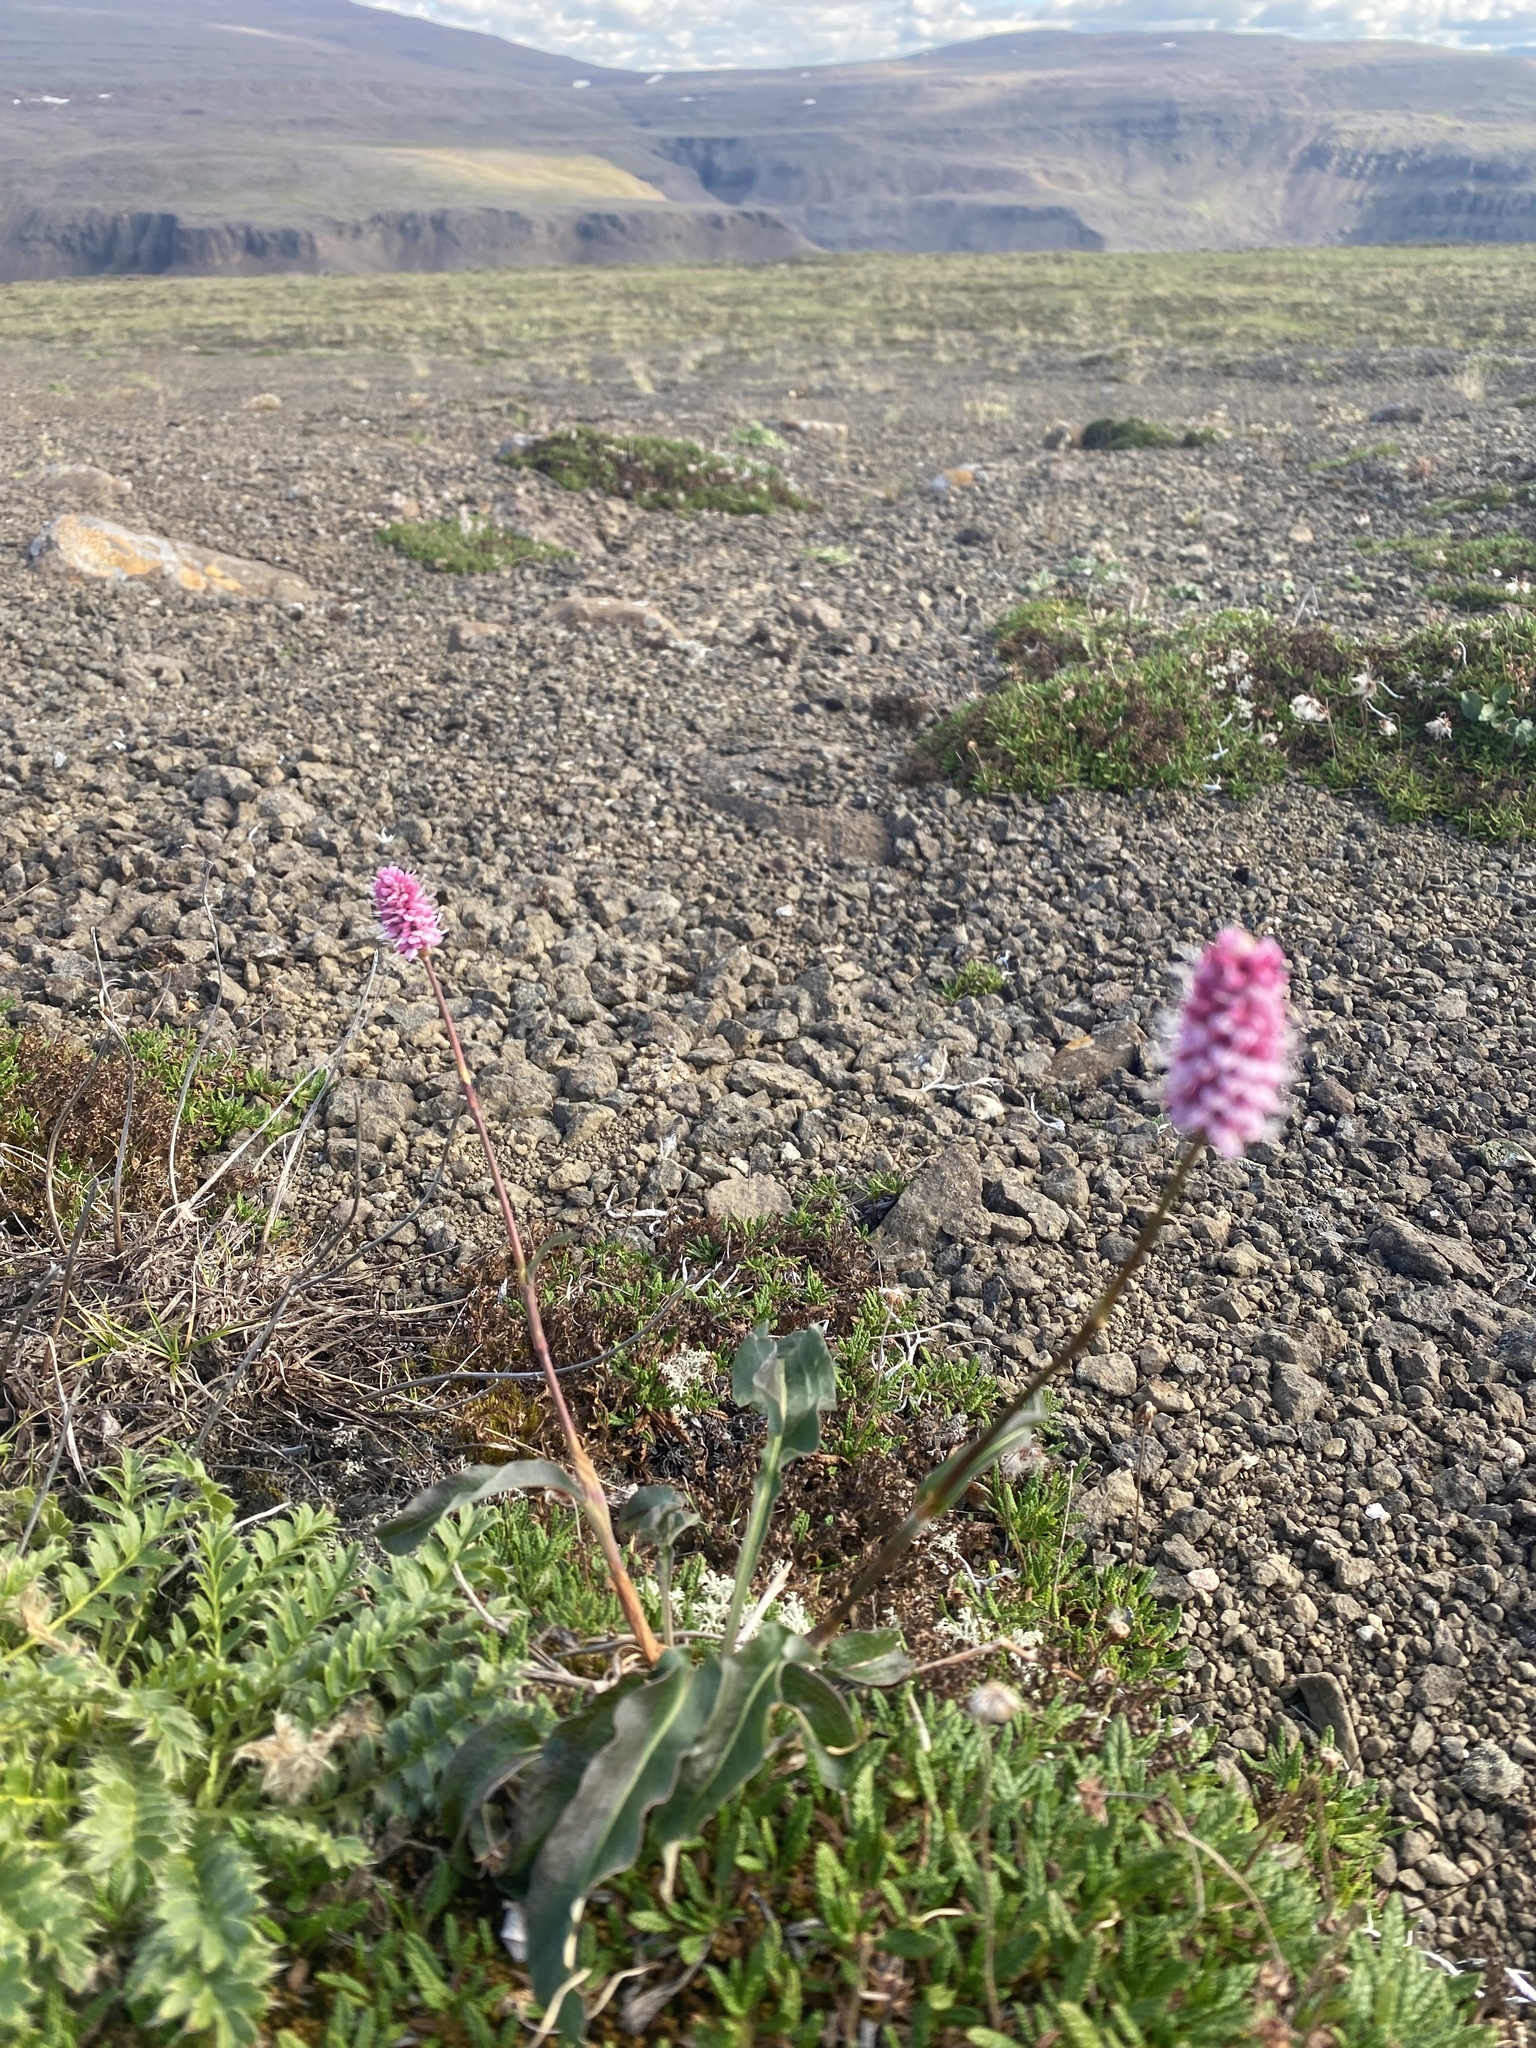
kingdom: Plantae
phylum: Tracheophyta
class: Magnoliopsida
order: Caryophyllales
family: Polygonaceae
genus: Bistorta
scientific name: Bistorta officinalis
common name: Common bistort
